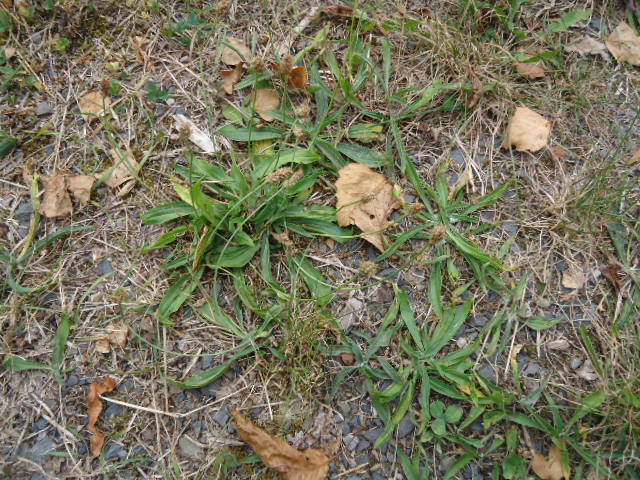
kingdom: Plantae
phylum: Tracheophyta
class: Magnoliopsida
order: Lamiales
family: Plantaginaceae
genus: Plantago
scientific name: Plantago lanceolata
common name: Ribwort plantain
